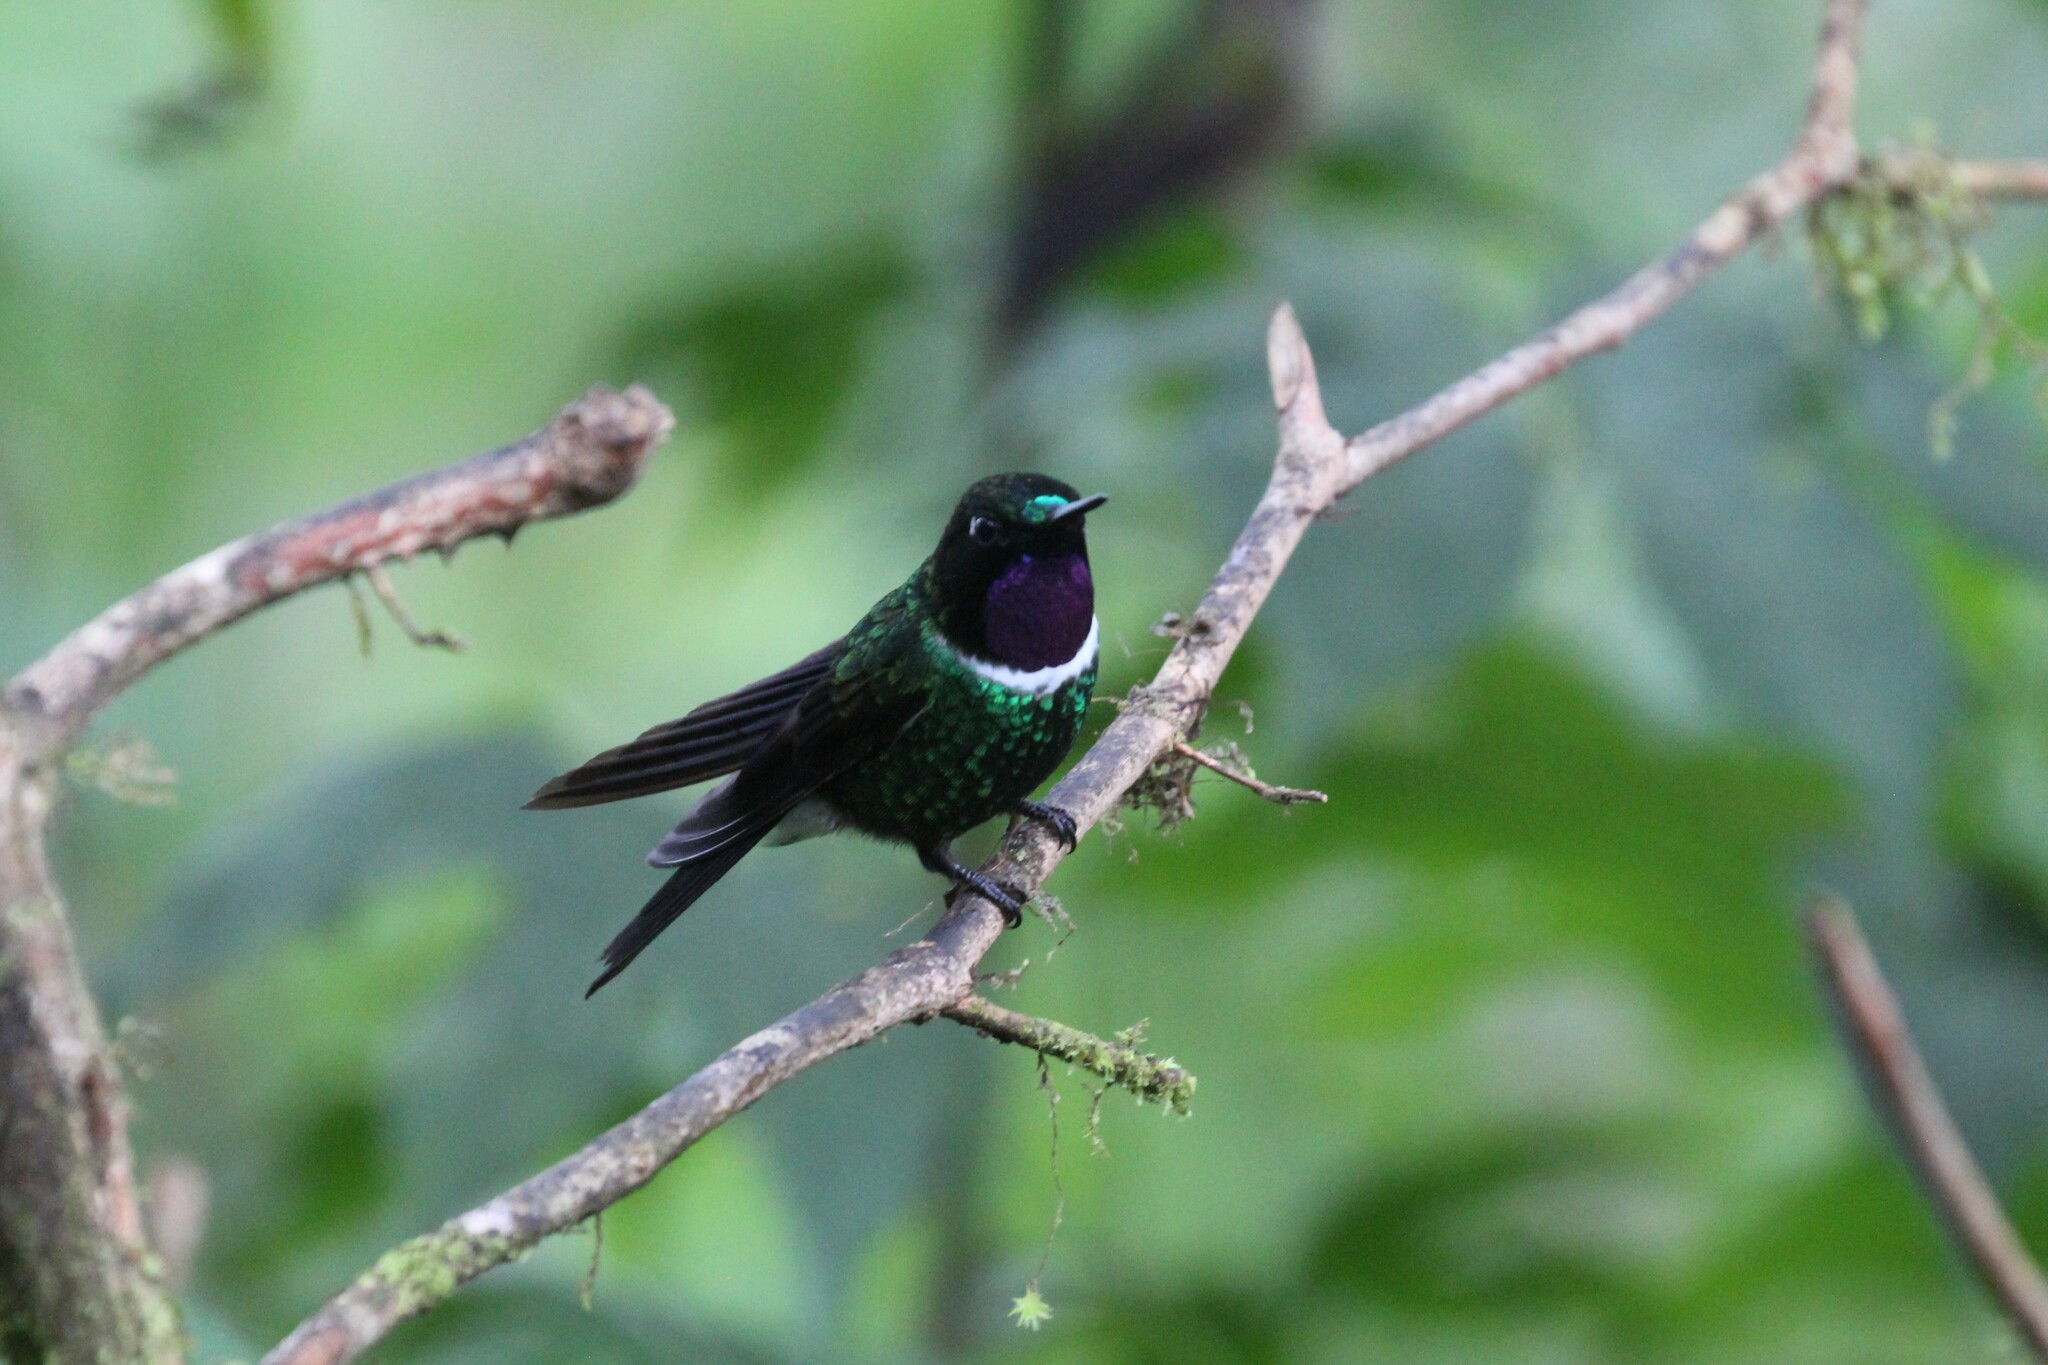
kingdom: Animalia
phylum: Chordata
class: Aves
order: Apodiformes
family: Trochilidae
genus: Heliangelus
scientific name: Heliangelus strophianus
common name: Gorgeted sunangel
